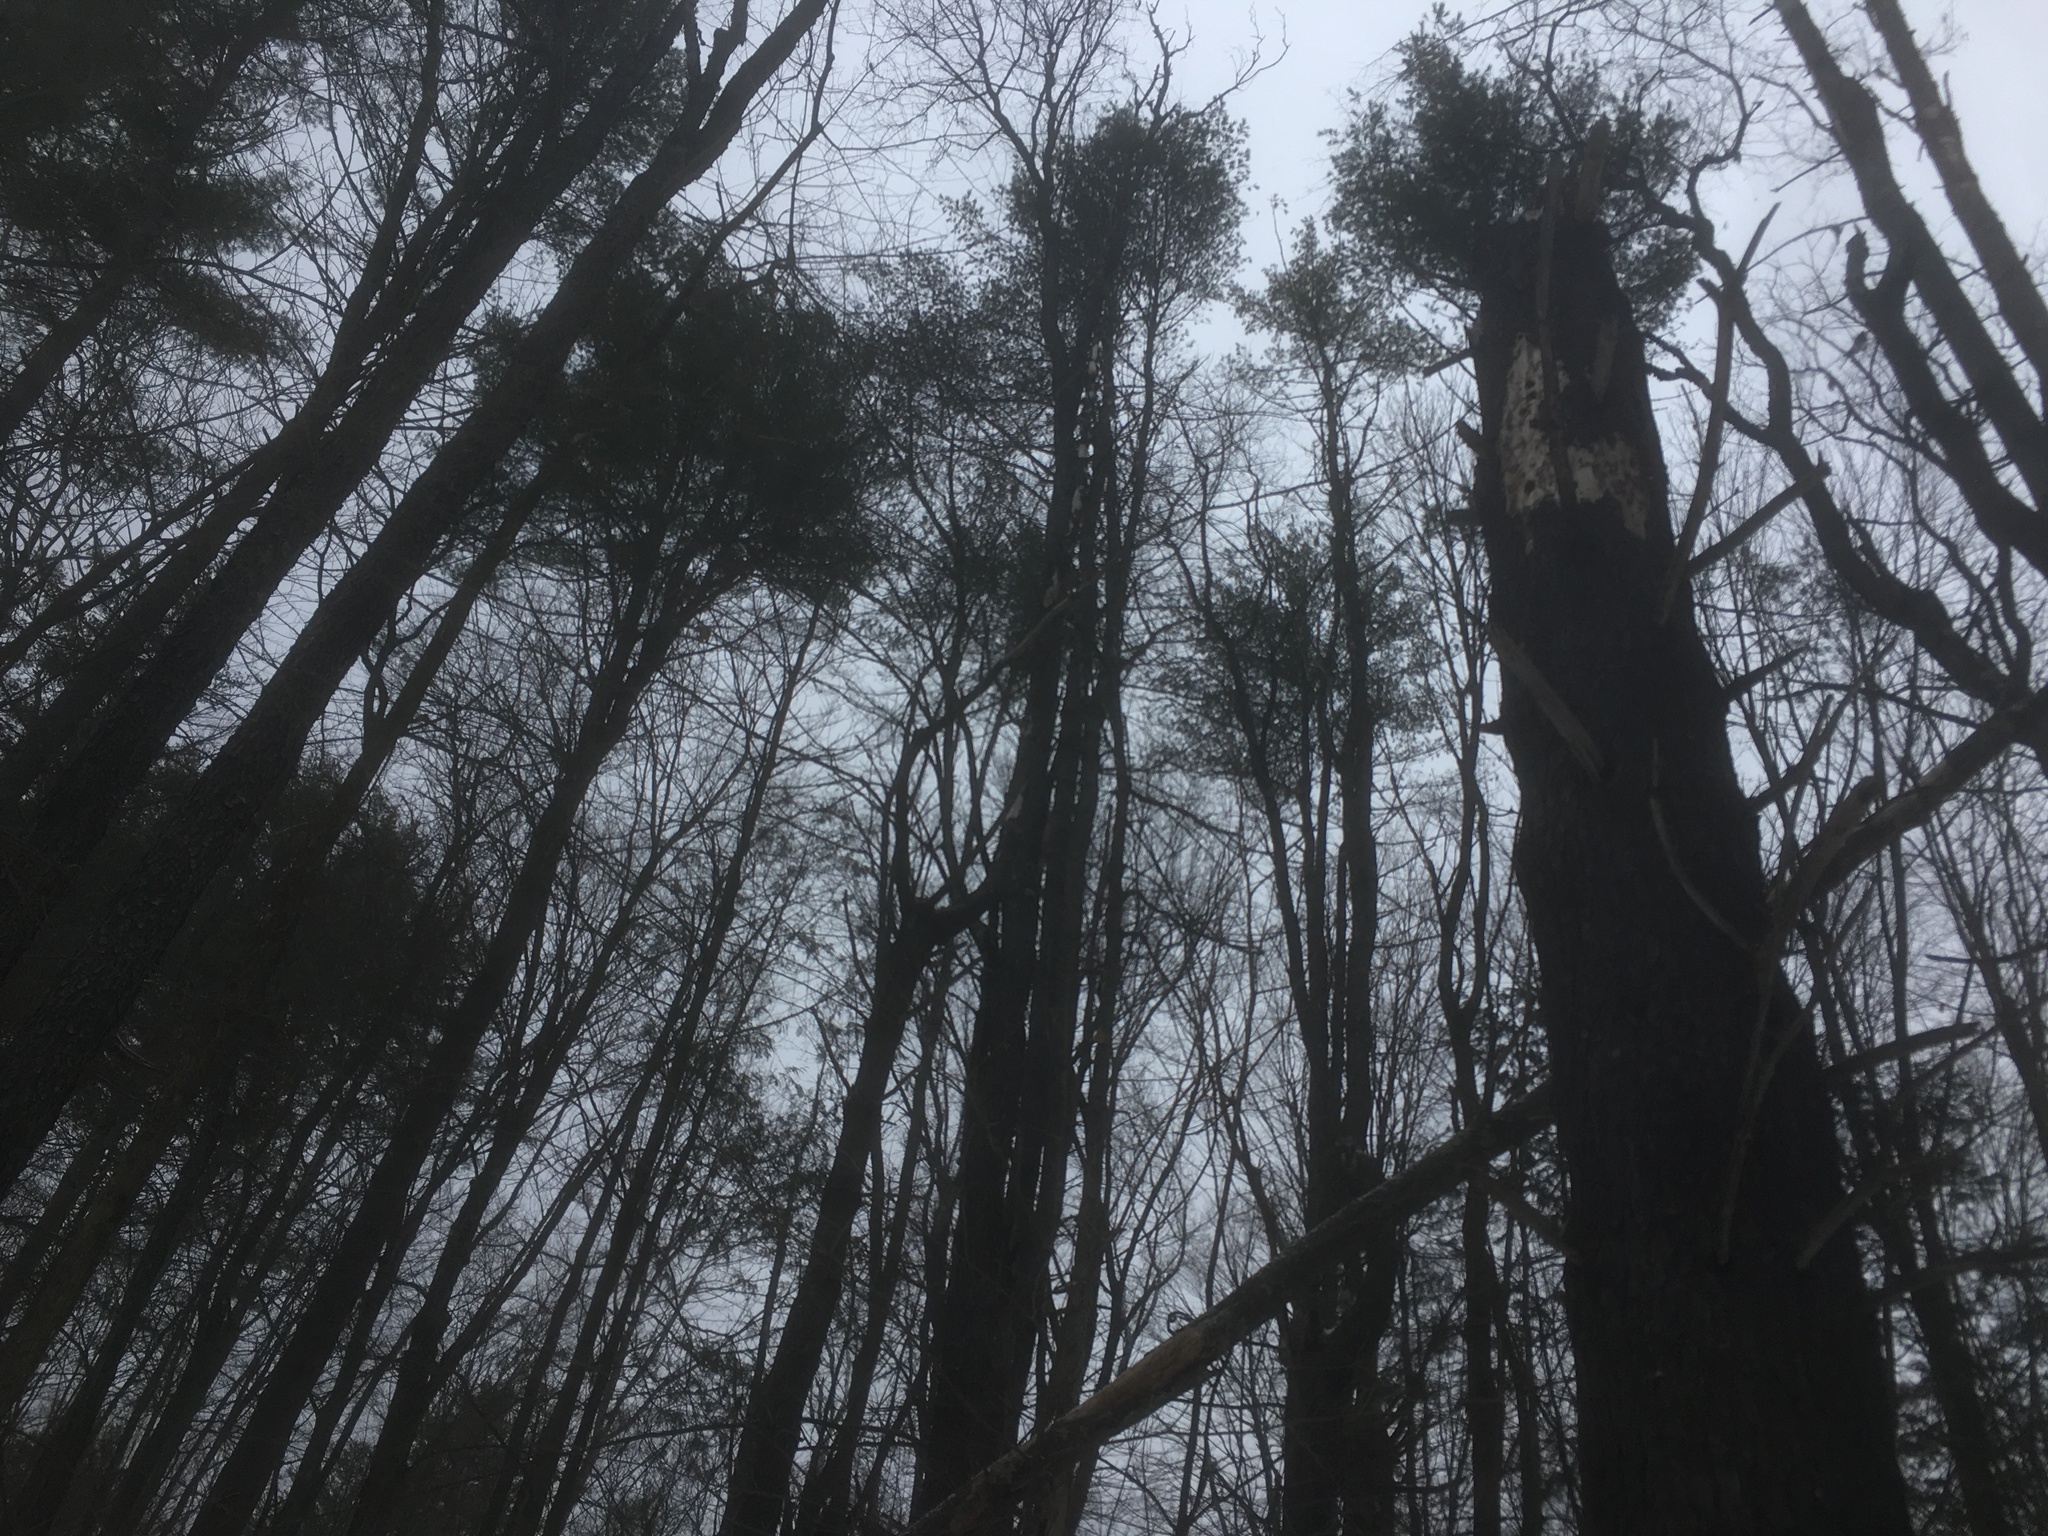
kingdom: Plantae
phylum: Tracheophyta
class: Pinopsida
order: Pinales
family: Pinaceae
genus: Pinus
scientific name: Pinus strobus
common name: Weymouth pine
